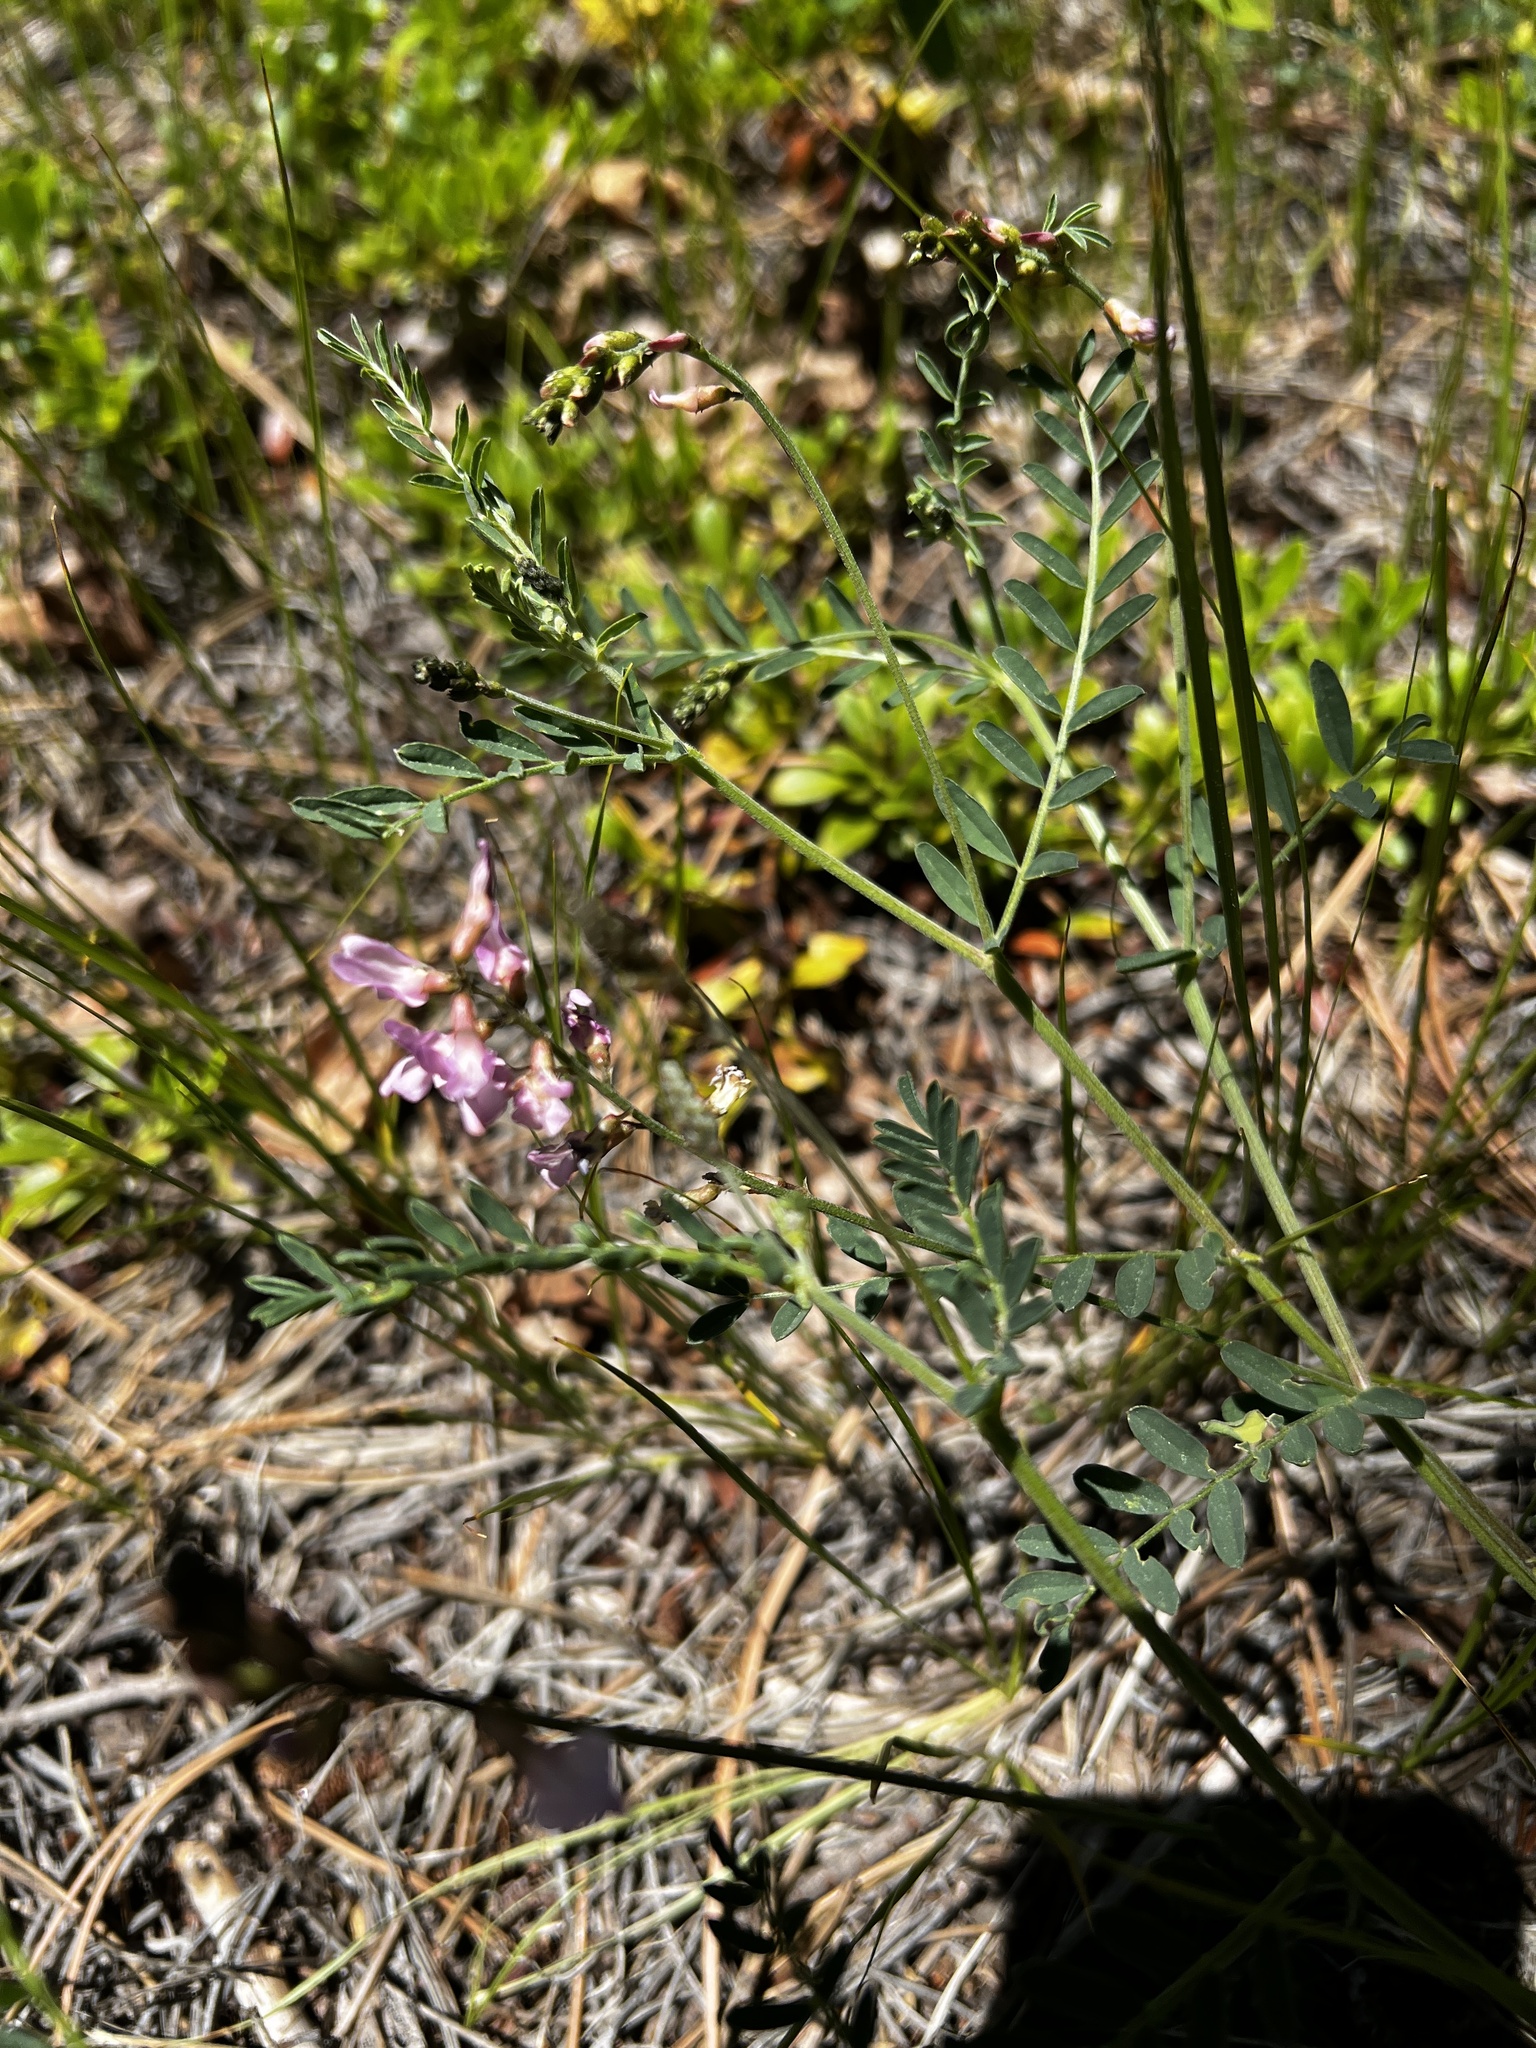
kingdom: Plantae
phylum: Tracheophyta
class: Magnoliopsida
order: Fabales
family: Fabaceae
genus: Astragalus
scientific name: Astragalus flexuosus
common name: Pliant milk-vetch
